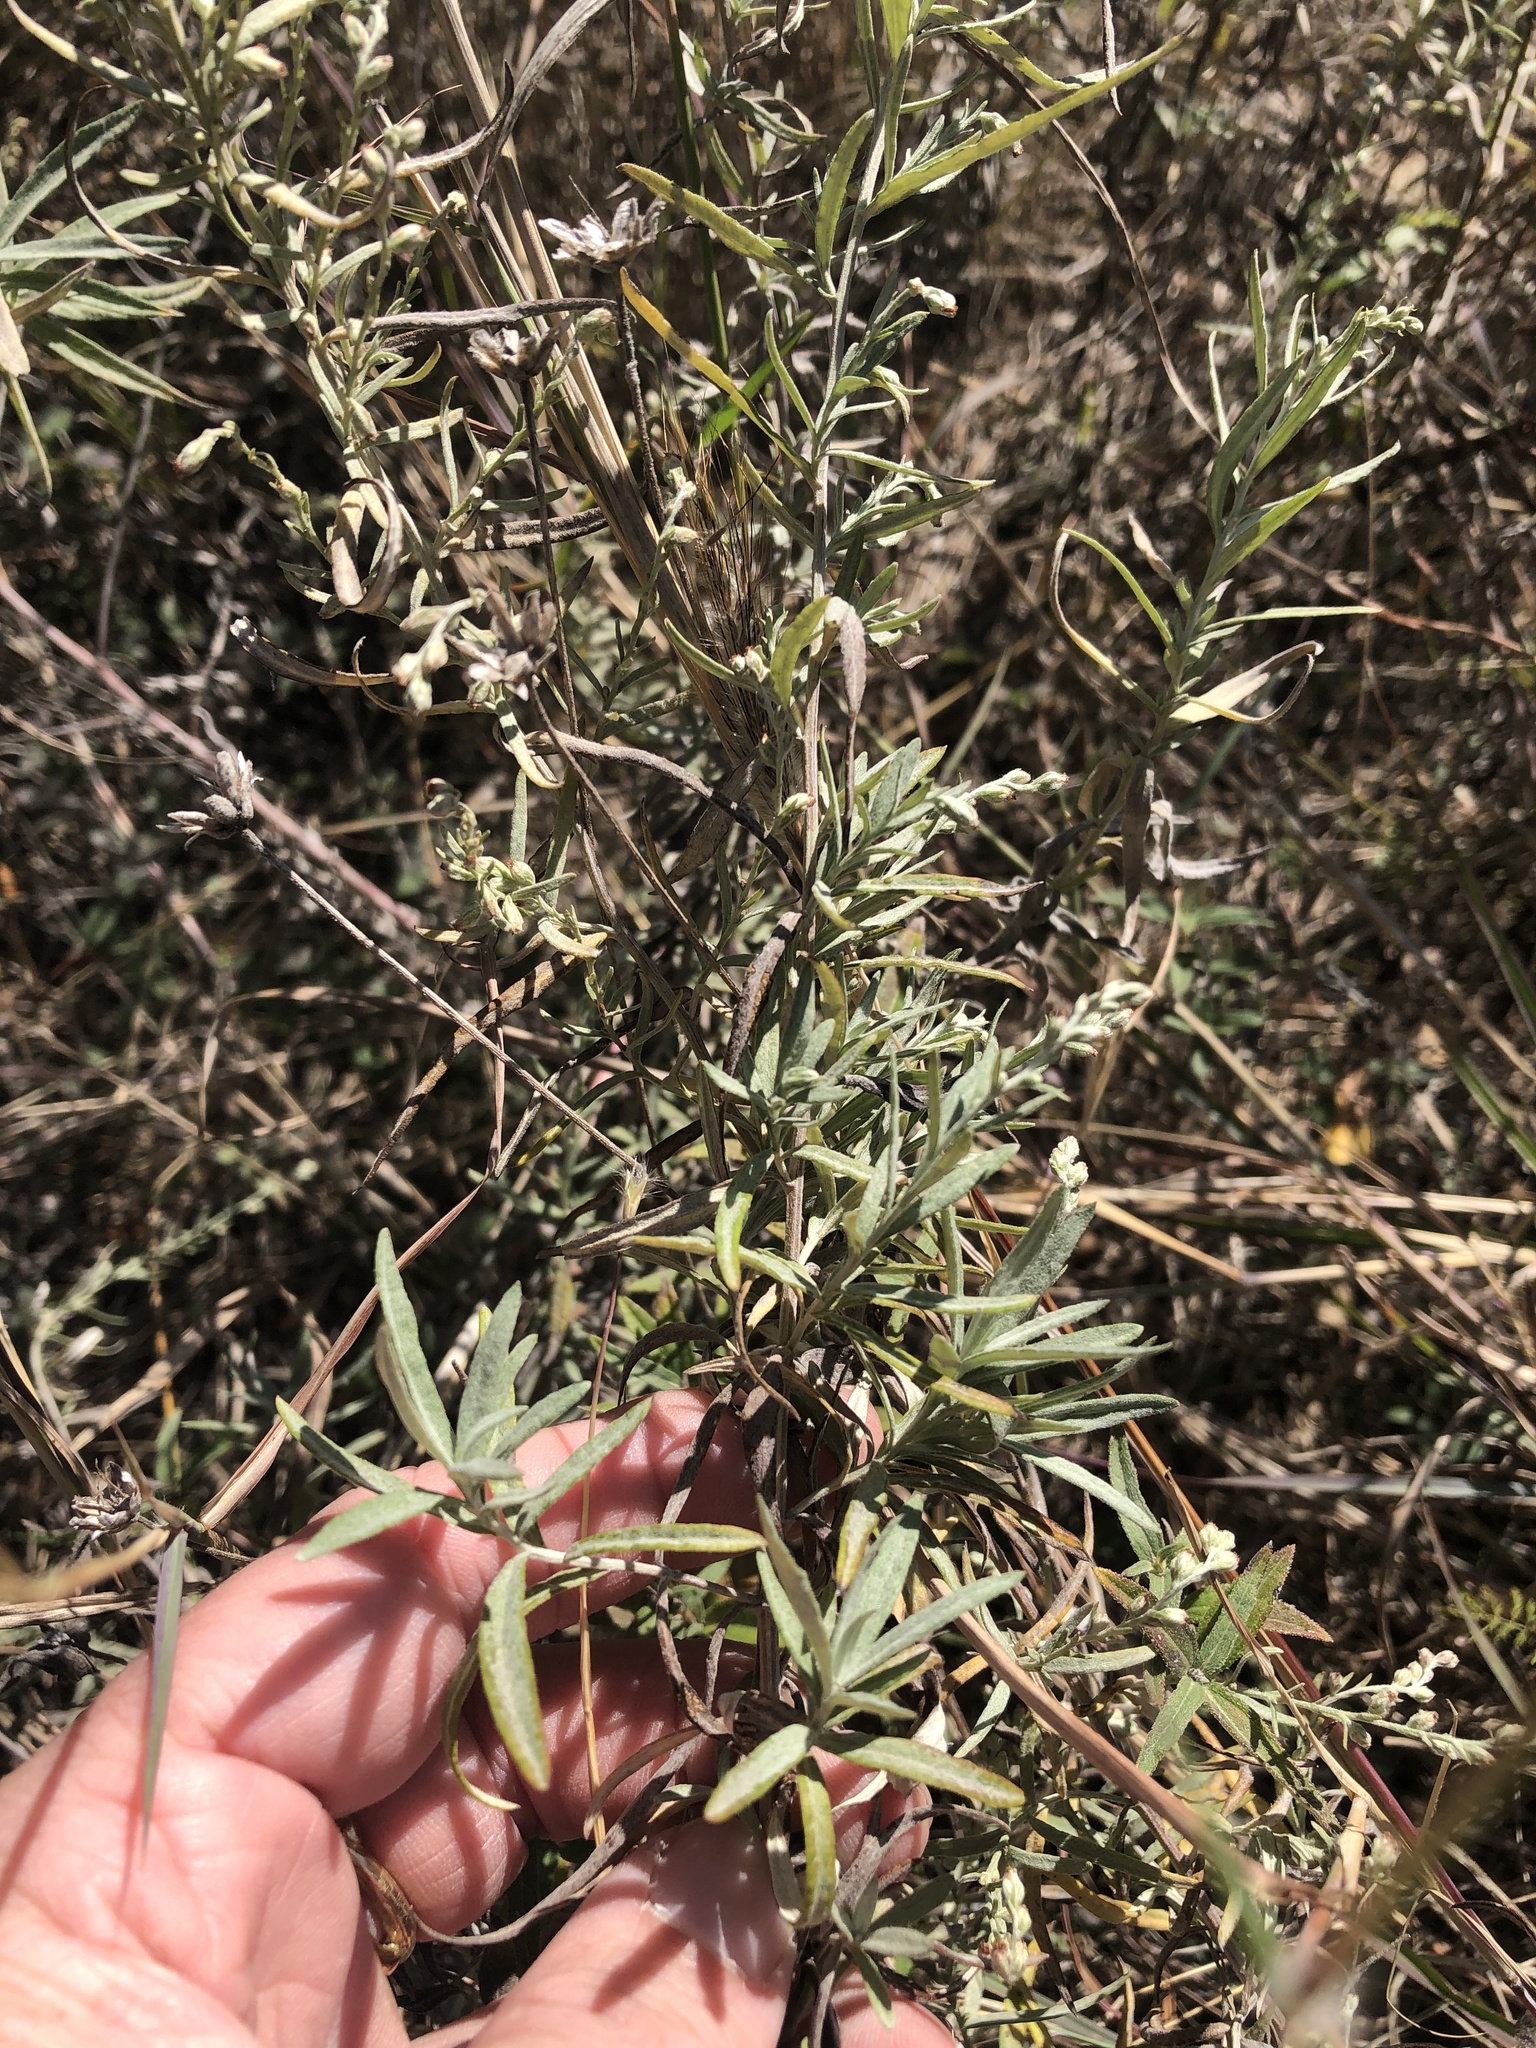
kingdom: Plantae
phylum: Tracheophyta
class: Magnoliopsida
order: Asterales
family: Asteraceae
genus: Artemisia
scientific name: Artemisia ludoviciana
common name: Western mugwort
